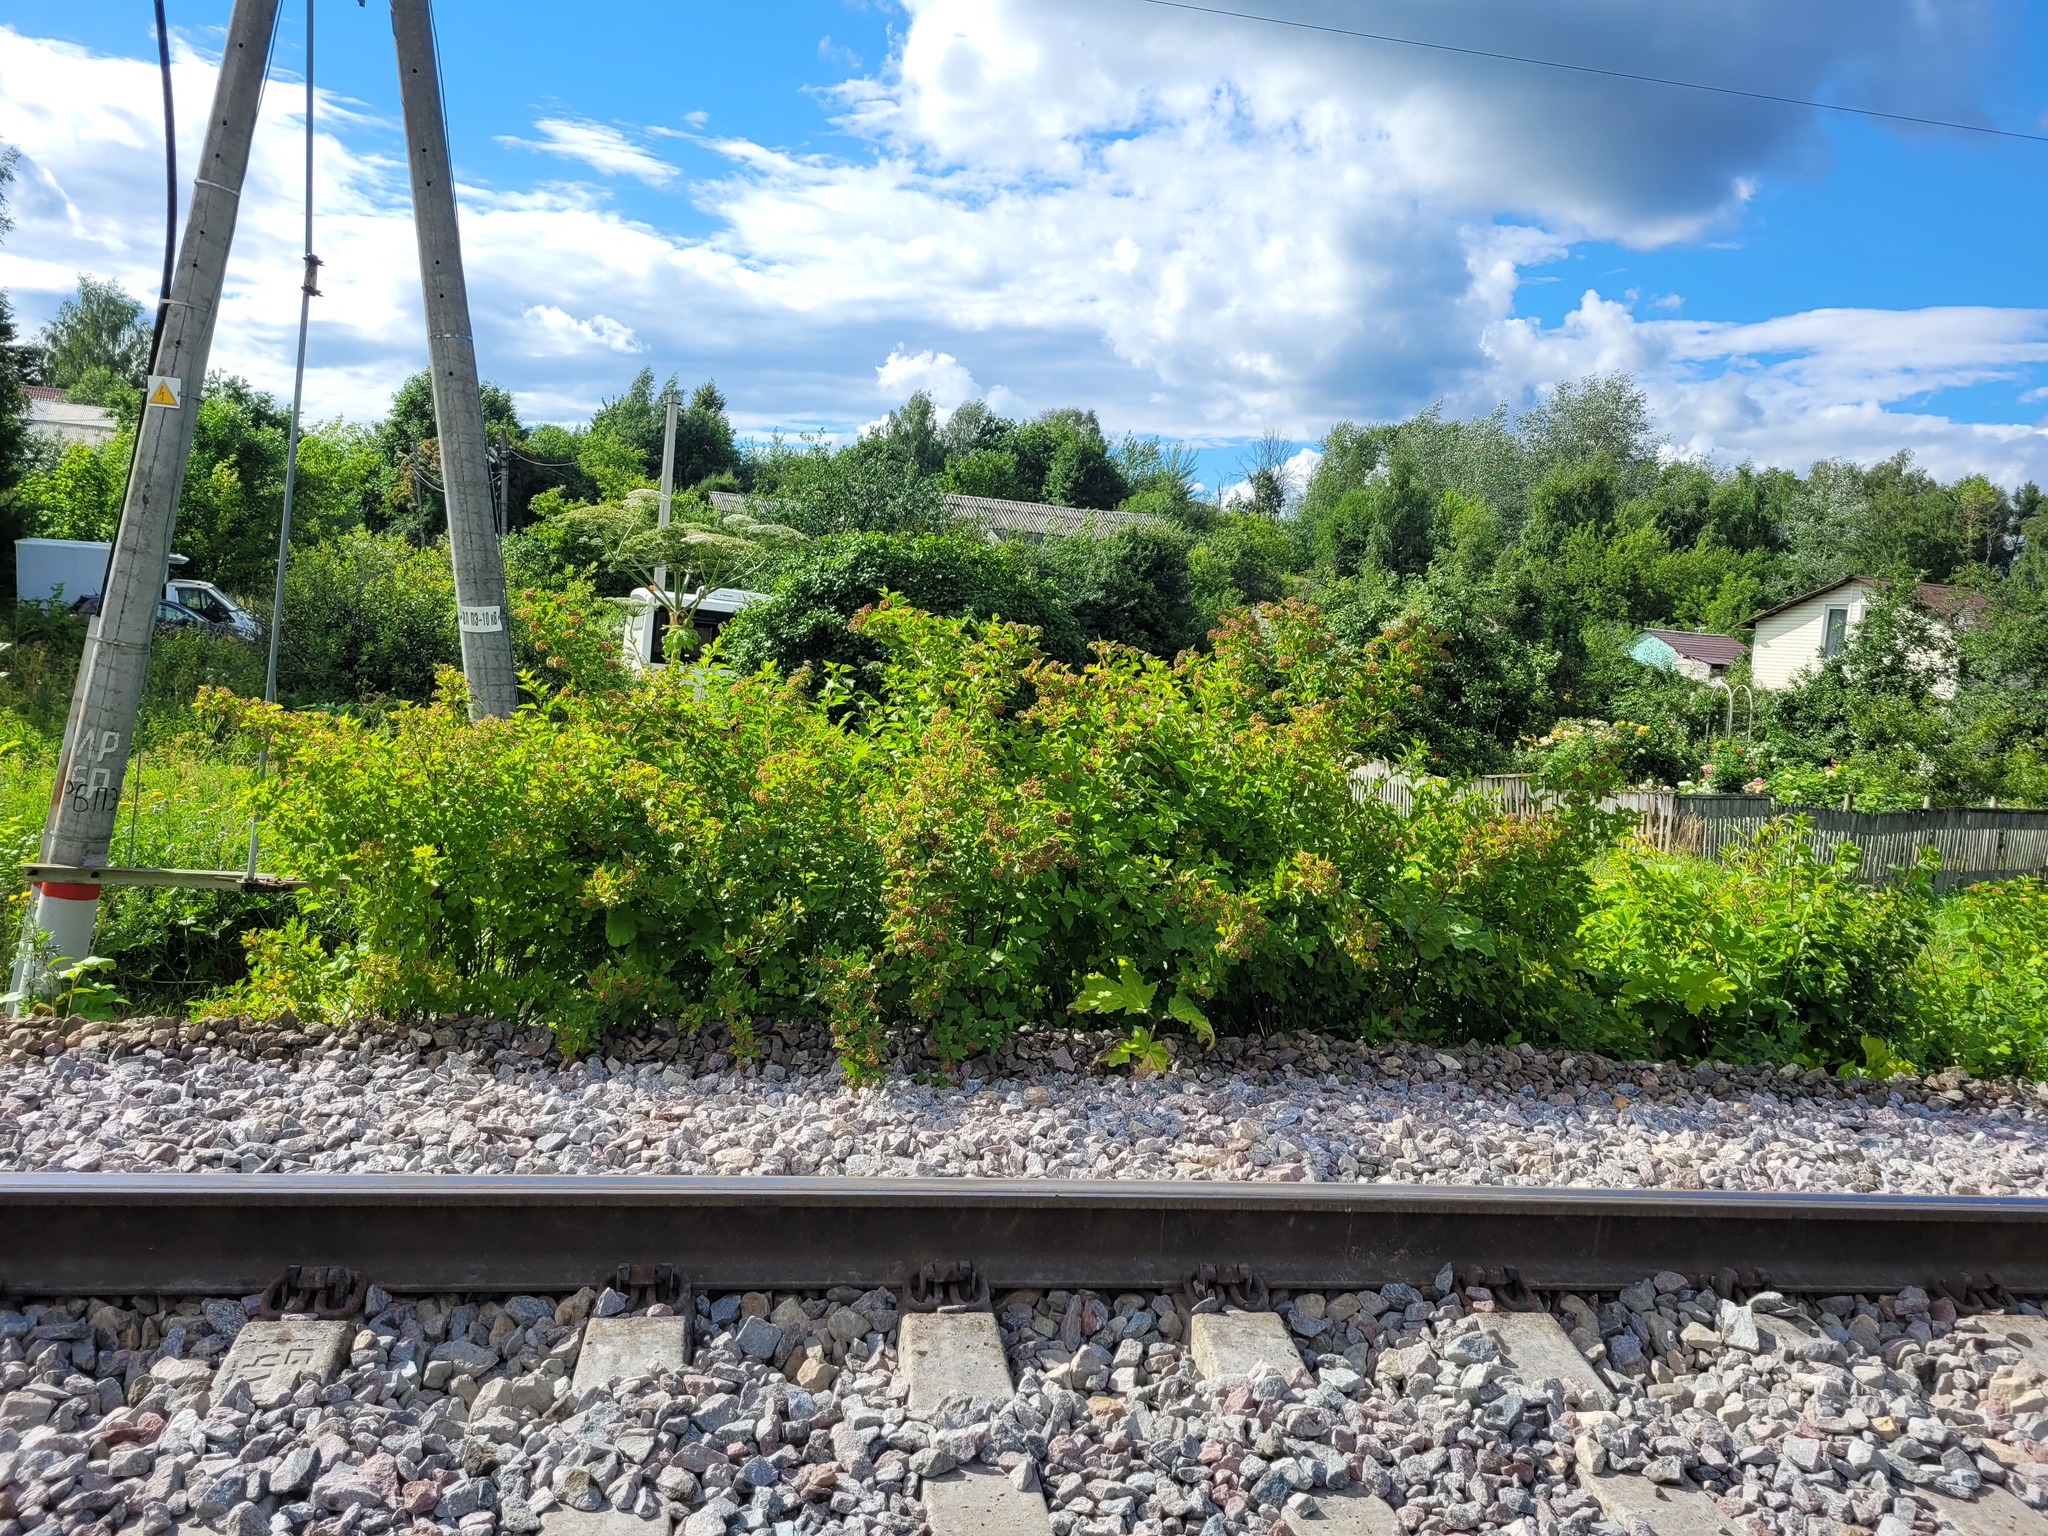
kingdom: Plantae
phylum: Tracheophyta
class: Magnoliopsida
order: Rosales
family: Rosaceae
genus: Physocarpus
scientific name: Physocarpus opulifolius
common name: Ninebark
